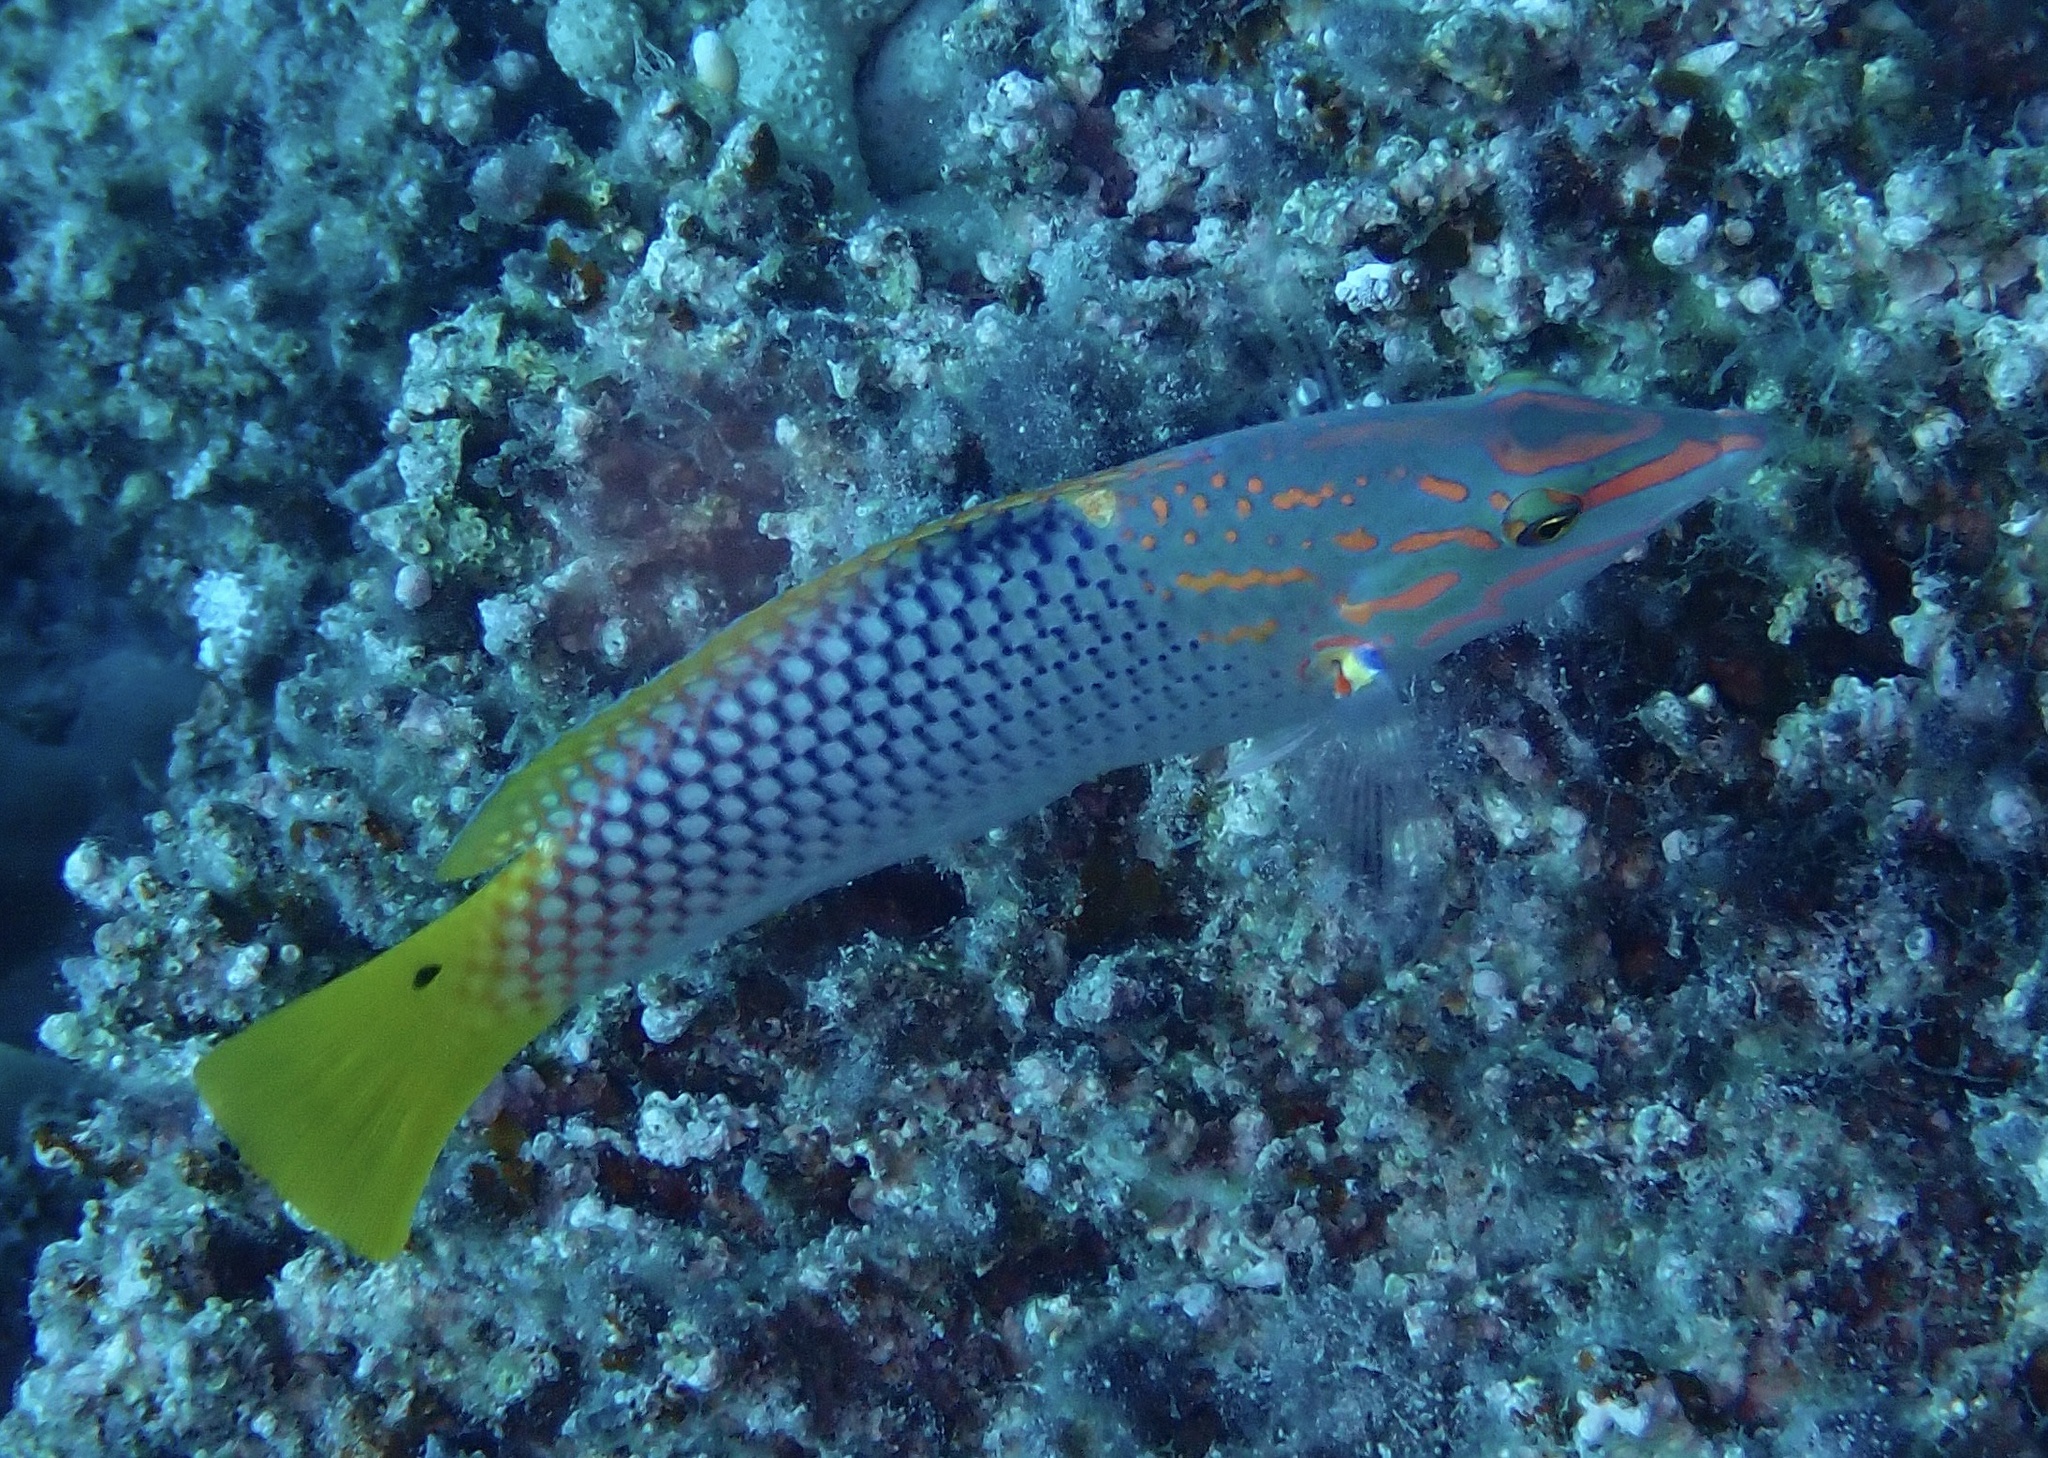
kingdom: Animalia
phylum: Chordata
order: Perciformes
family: Labridae
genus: Halichoeres
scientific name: Halichoeres hortulanus
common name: Checkerboard wrasse
